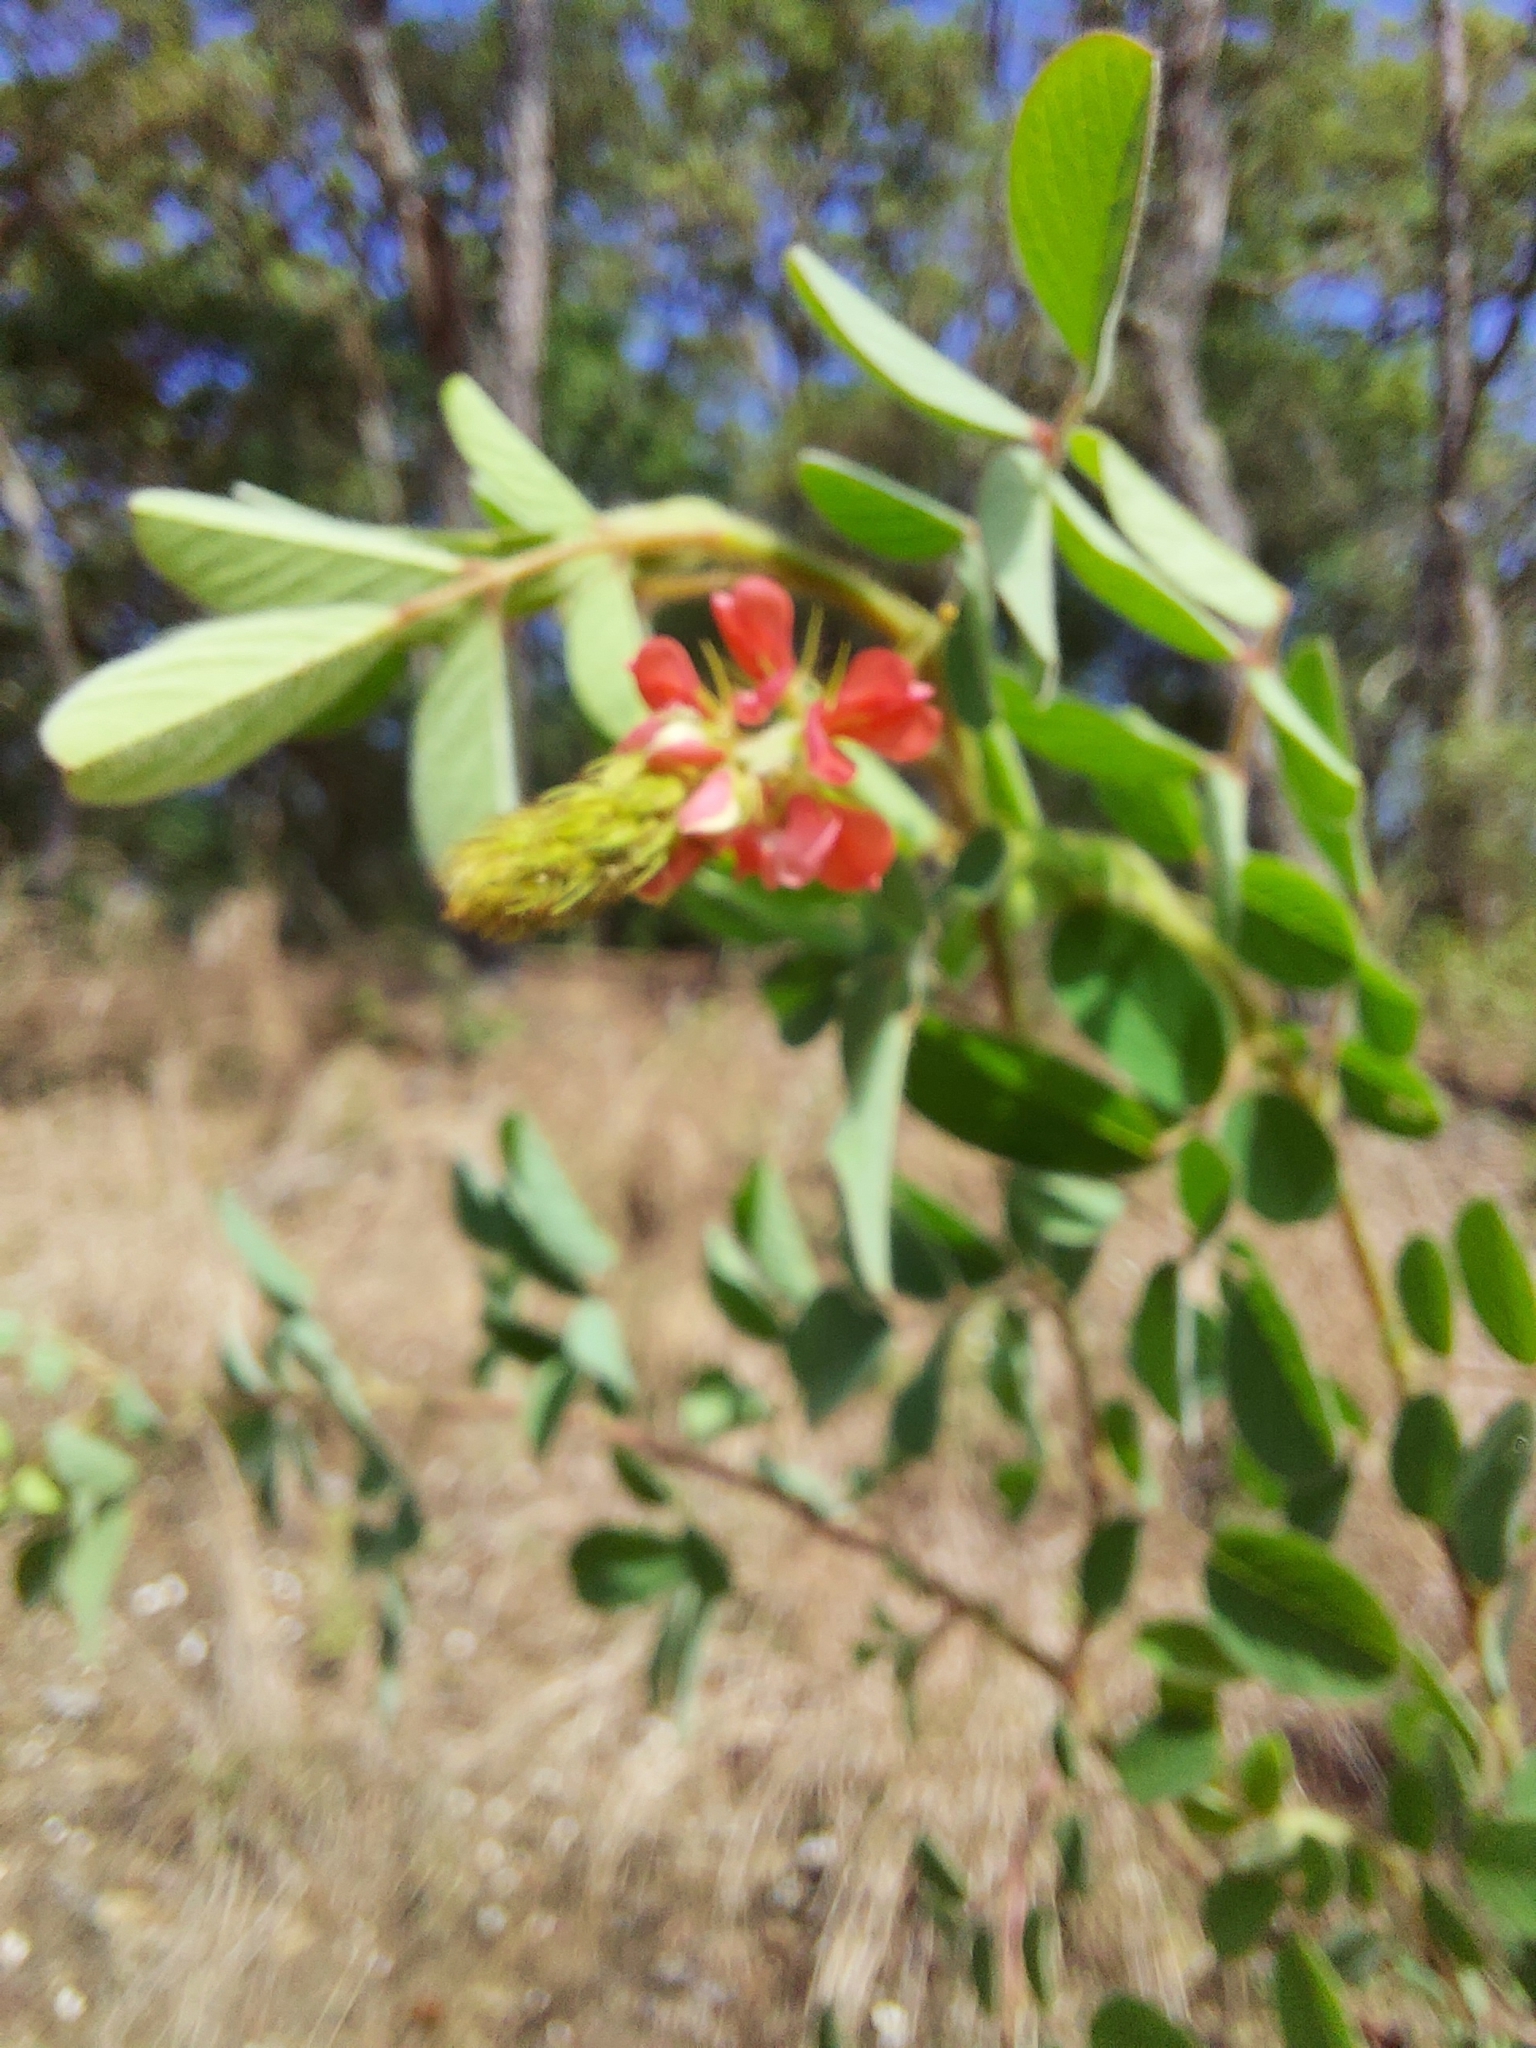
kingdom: Plantae
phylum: Tracheophyta
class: Magnoliopsida
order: Fabales
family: Fabaceae
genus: Indigofera
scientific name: Indigofera hirsuta
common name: Hairy indigo
